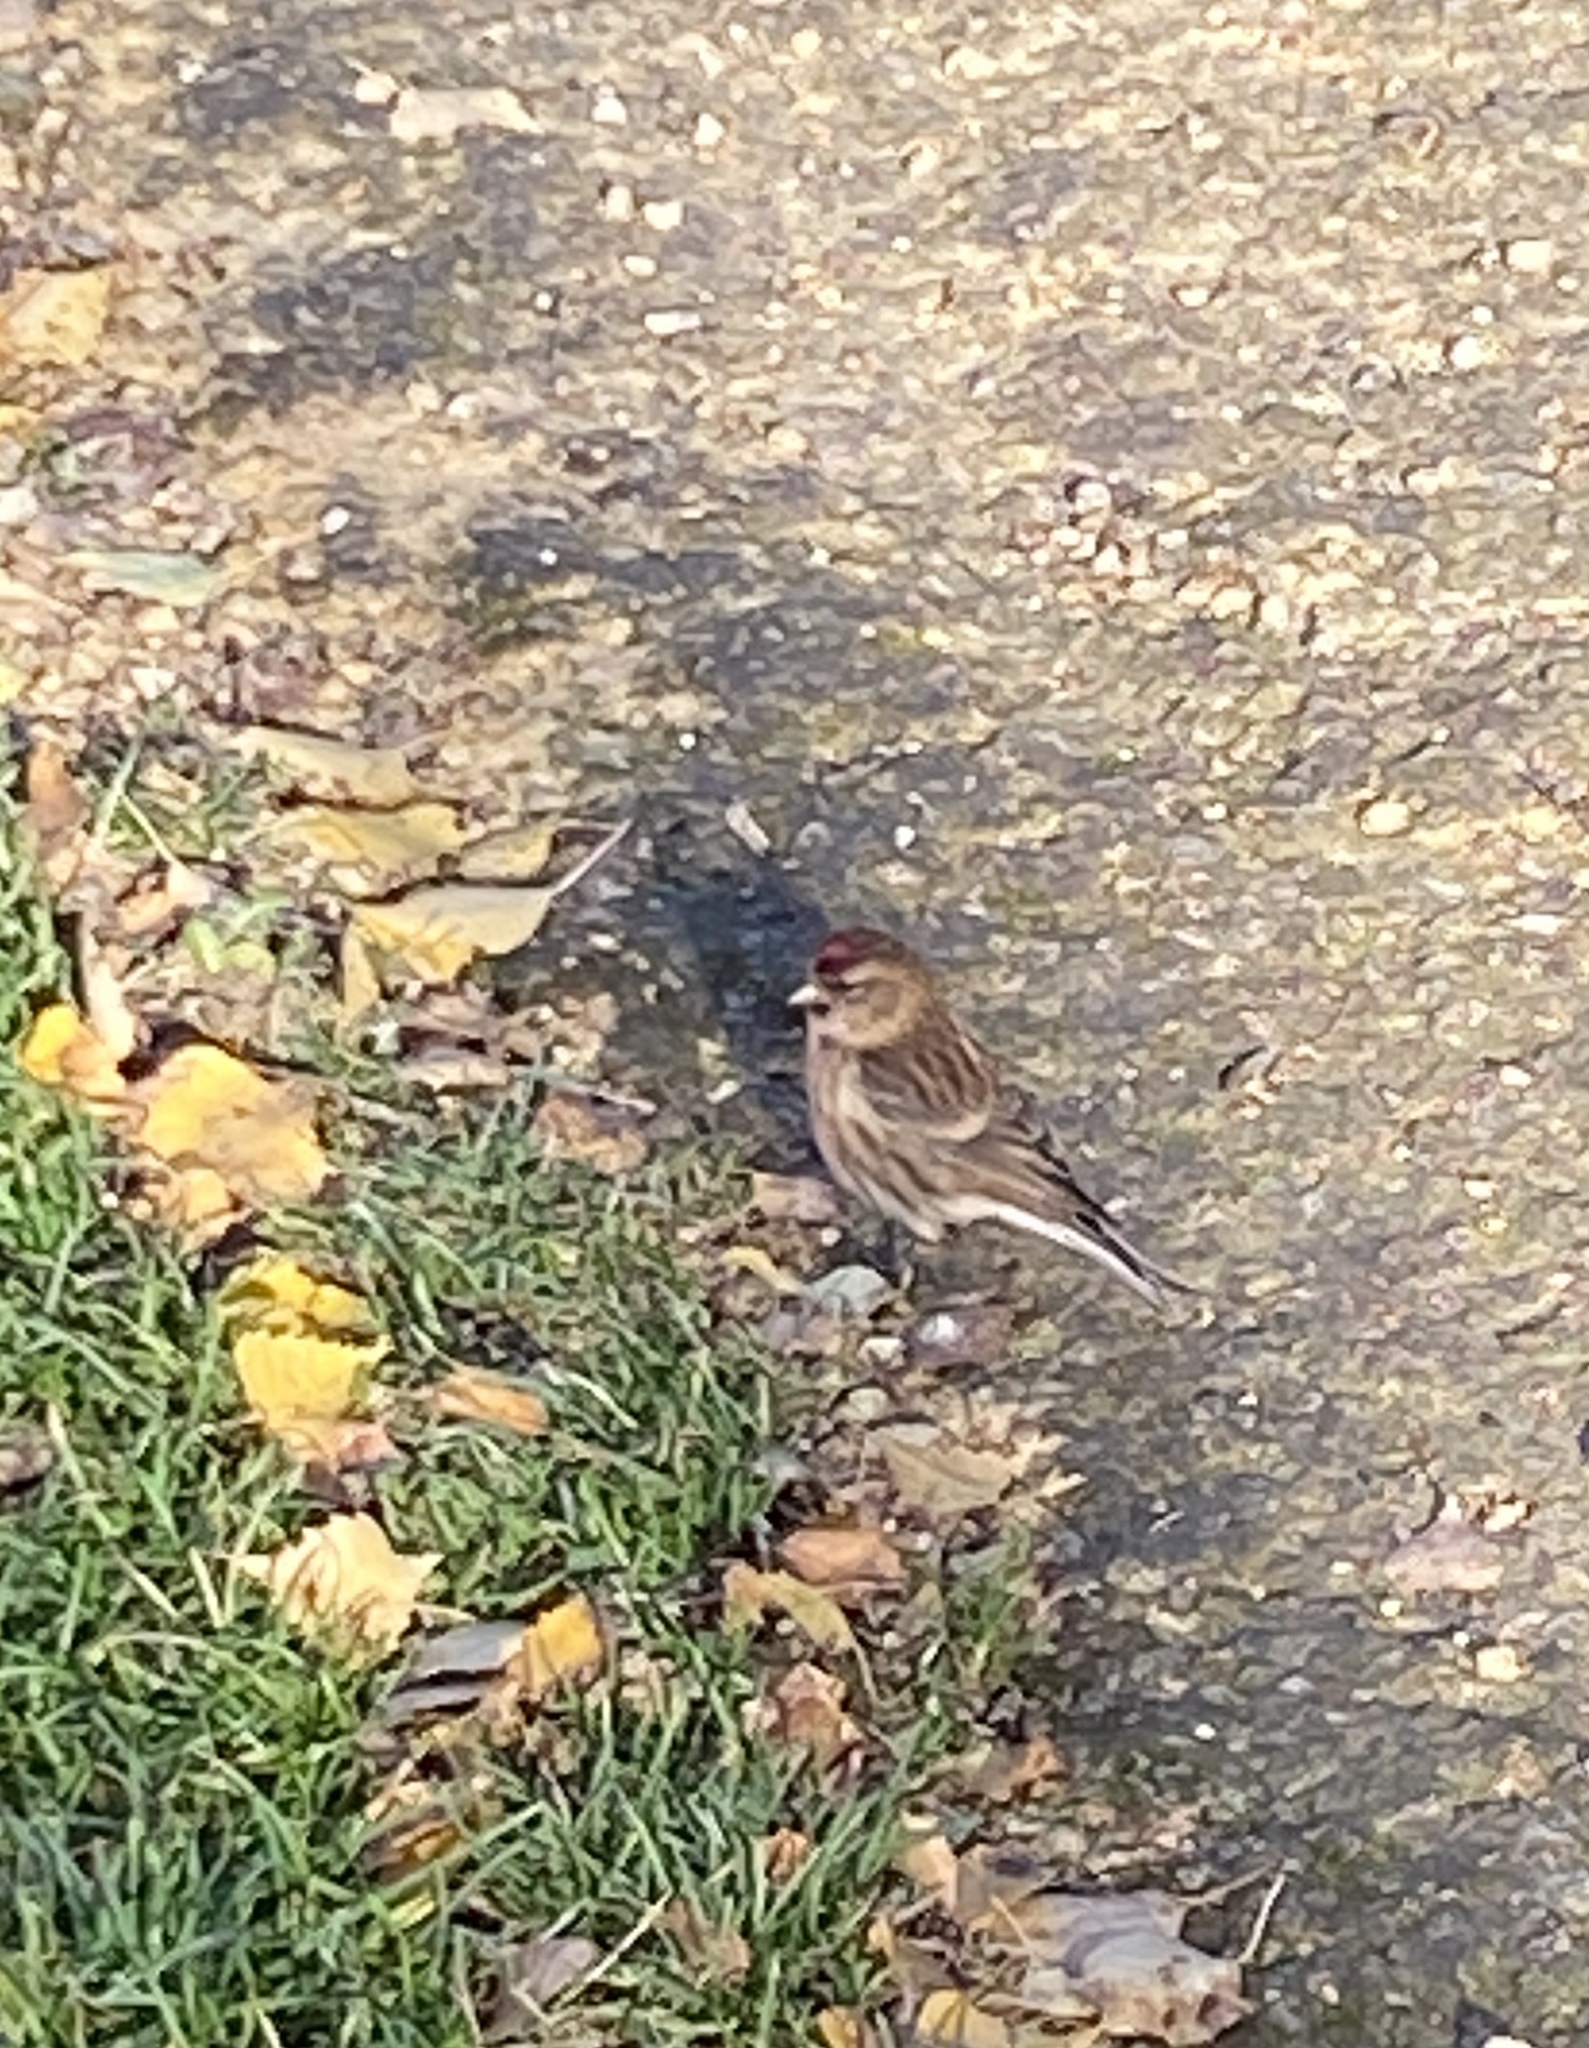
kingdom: Animalia
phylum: Chordata
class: Aves
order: Passeriformes
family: Fringillidae
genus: Acanthis
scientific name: Acanthis flammea
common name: Common redpoll
